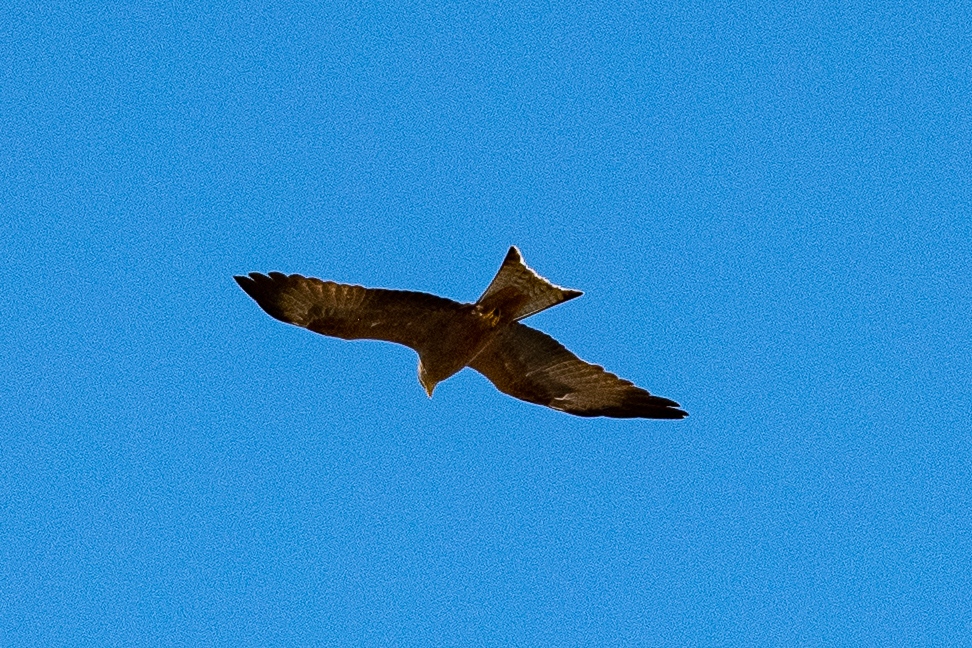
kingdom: Animalia
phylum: Chordata
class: Aves
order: Accipitriformes
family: Accipitridae
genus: Milvus
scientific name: Milvus migrans
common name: Black kite
